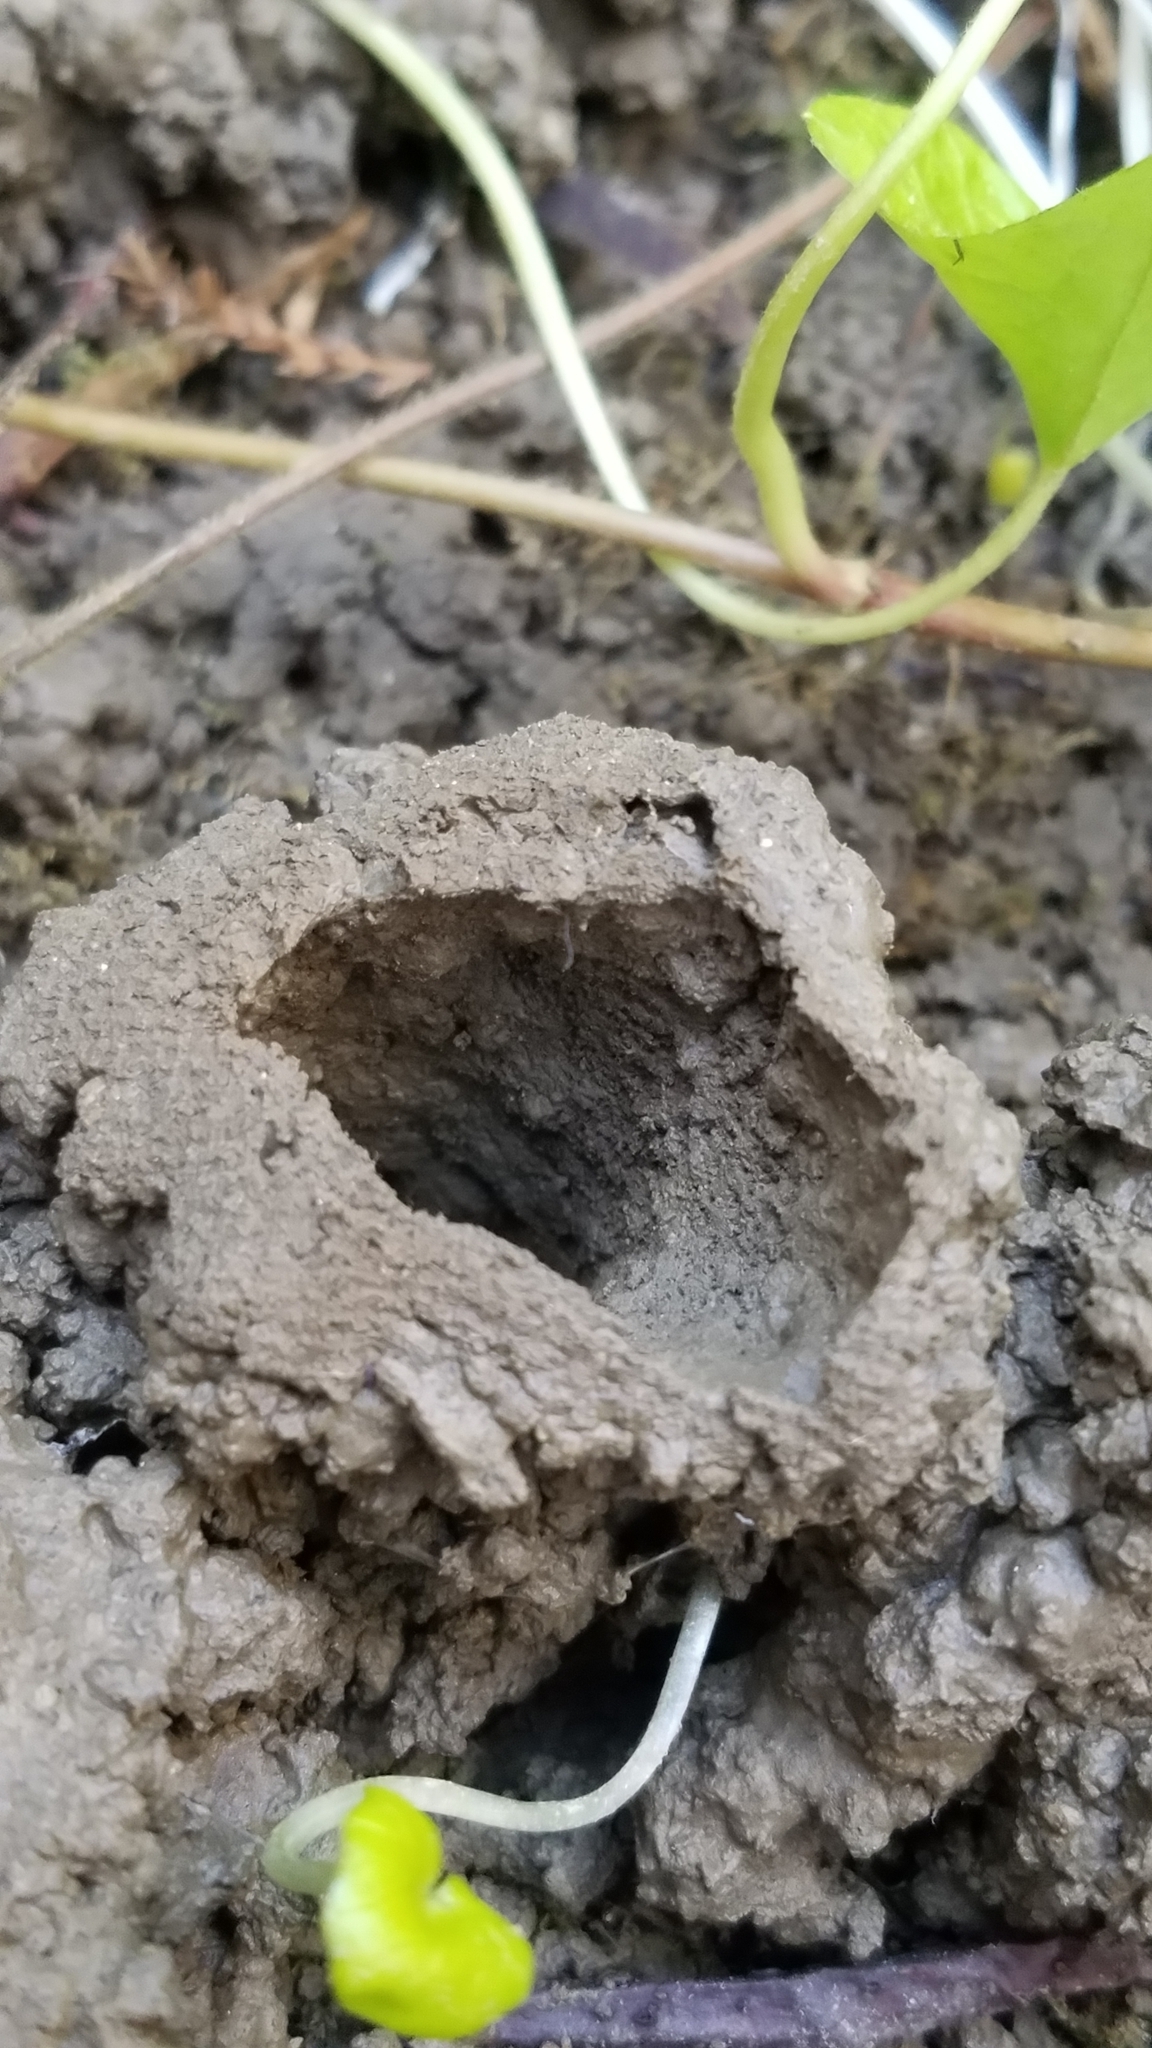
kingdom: Animalia
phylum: Arthropoda
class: Insecta
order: Hemiptera
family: Cicadidae
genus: Magicicada
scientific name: Magicicada
